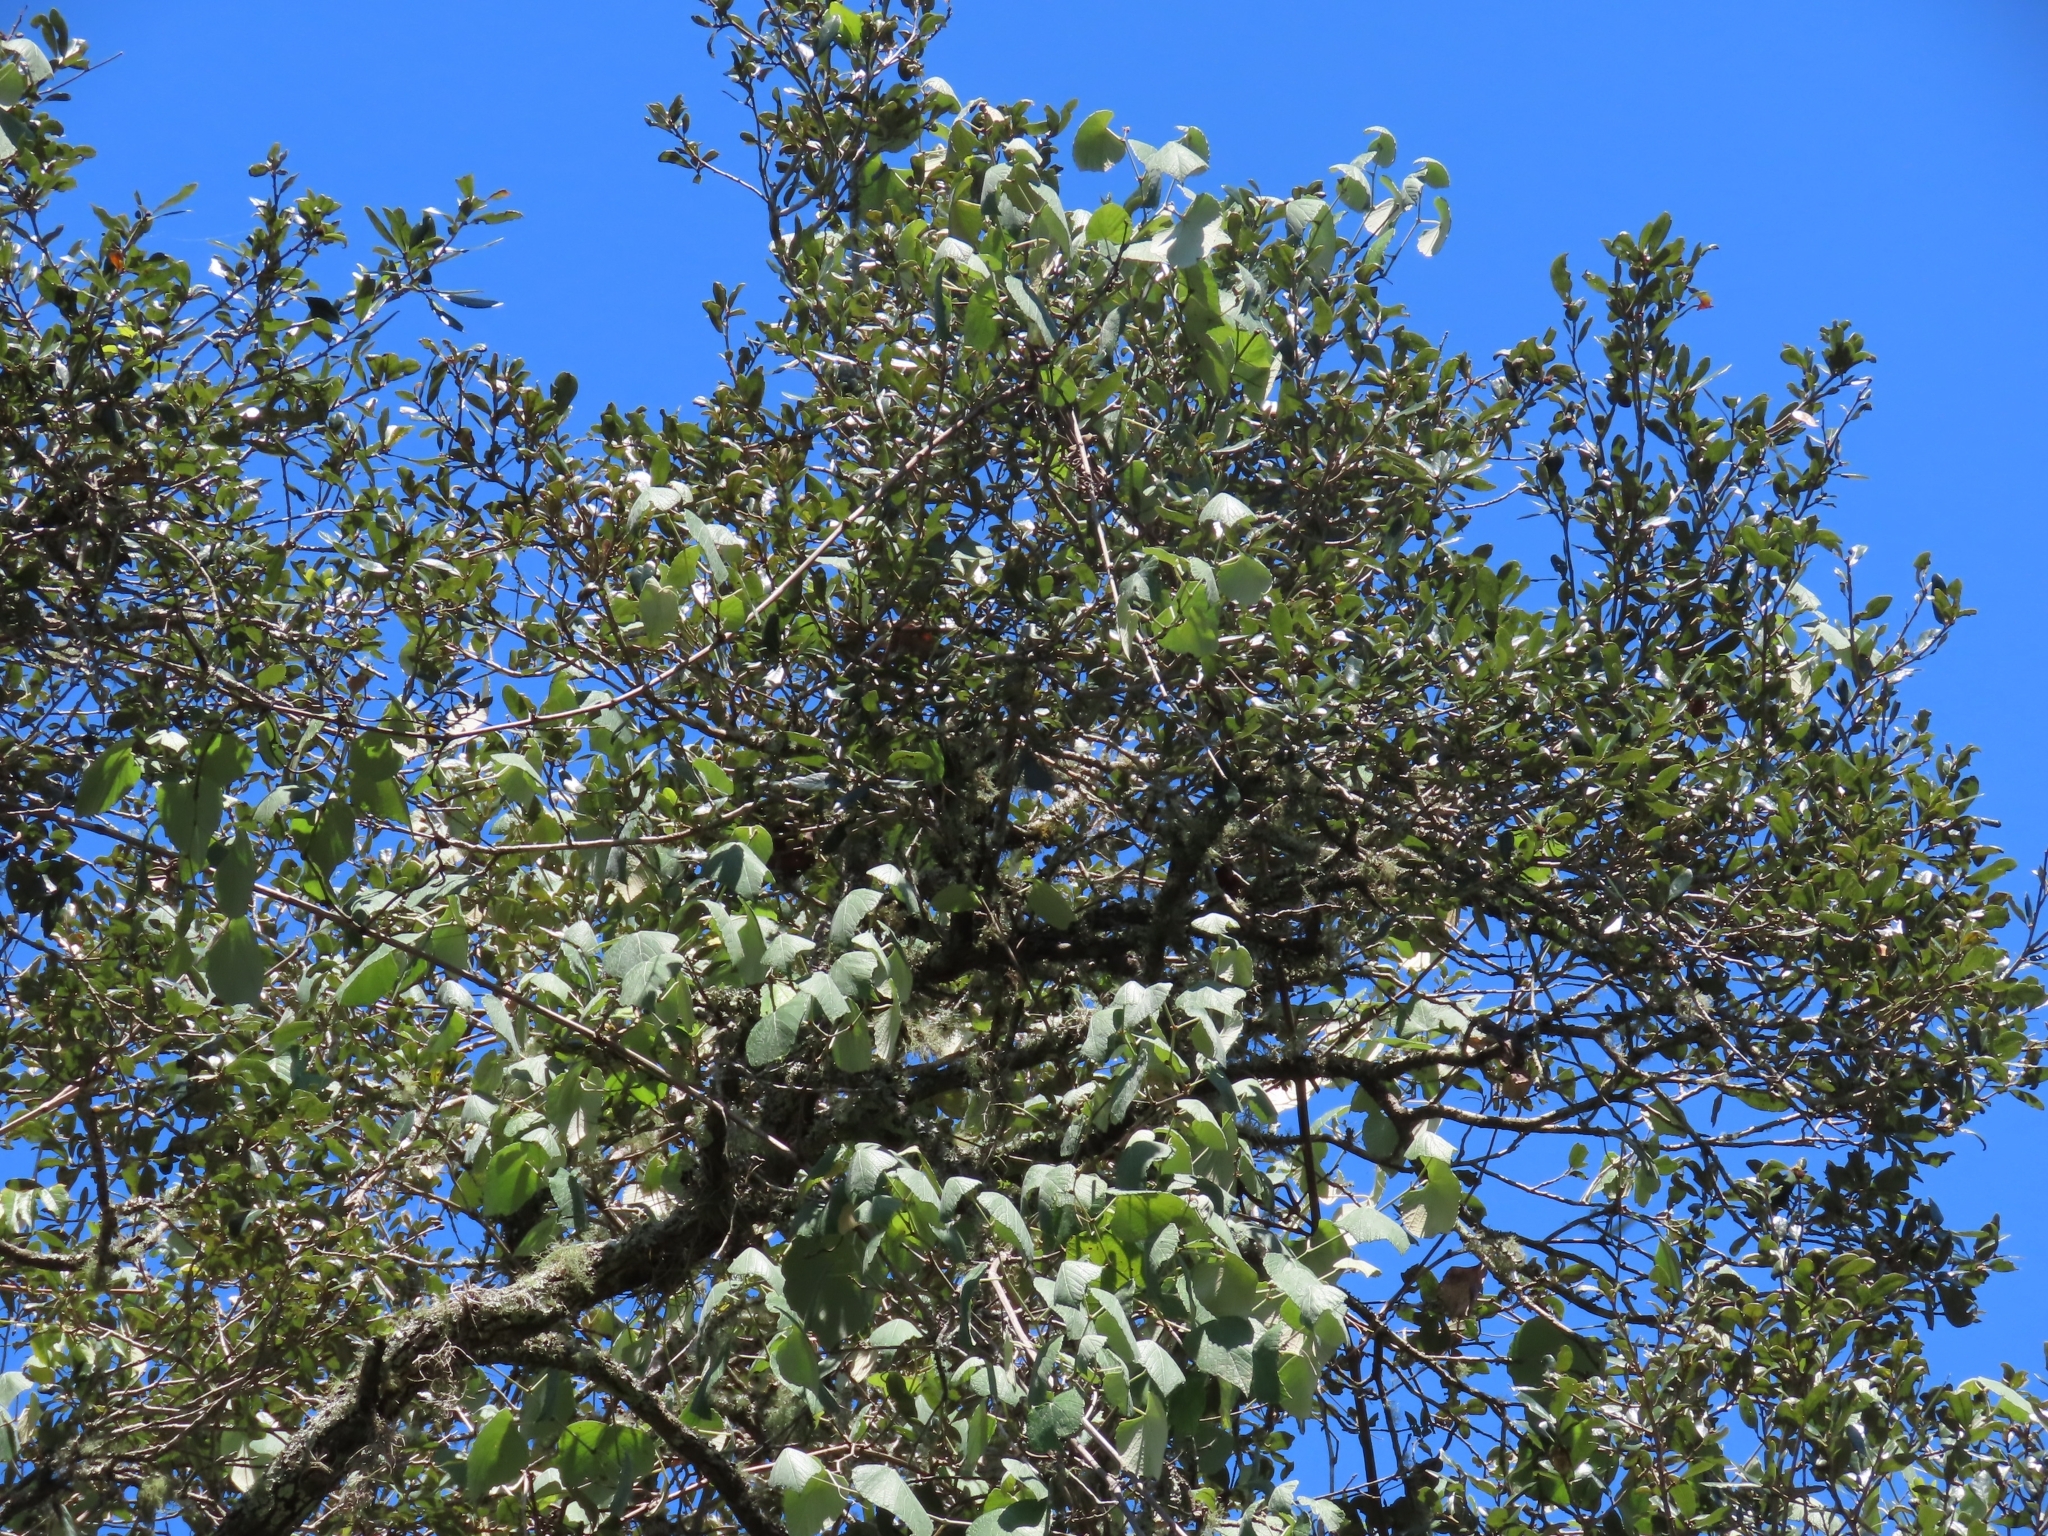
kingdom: Plantae
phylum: Tracheophyta
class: Magnoliopsida
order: Vitales
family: Vitaceae
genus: Vitis
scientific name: Vitis mustangensis
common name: Mustang grape
